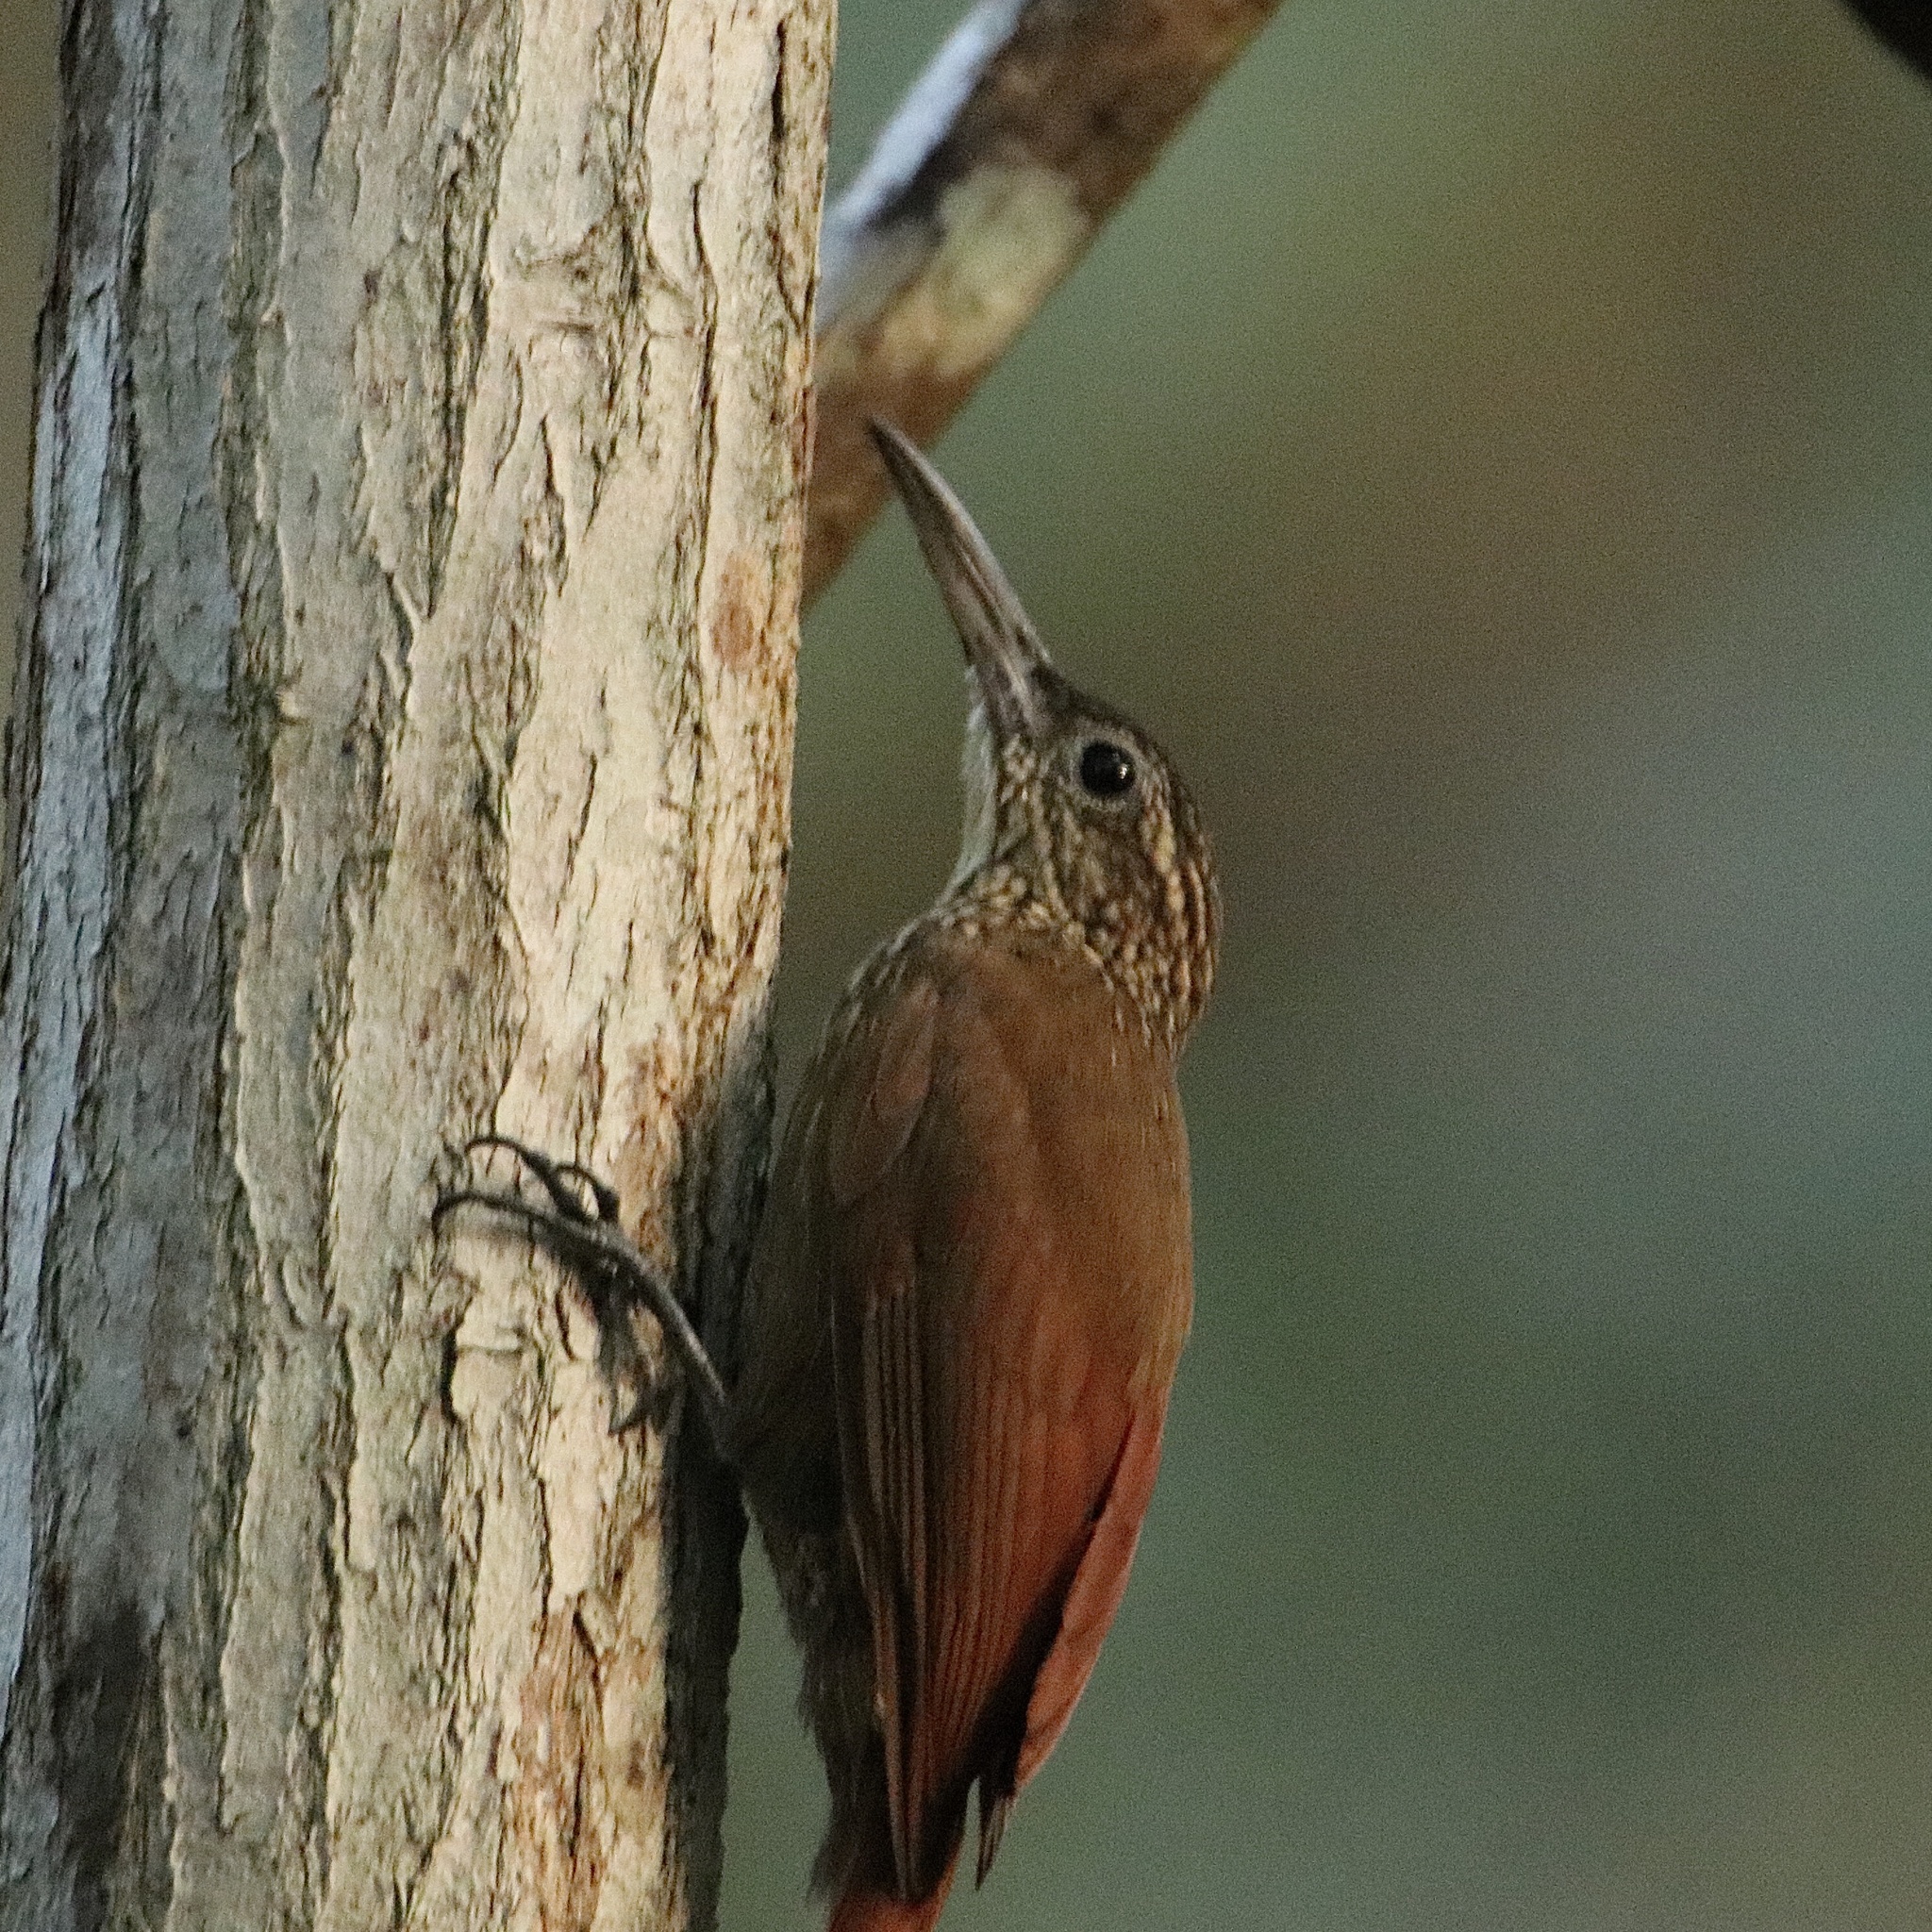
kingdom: Animalia
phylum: Chordata
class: Aves
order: Passeriformes
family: Furnariidae
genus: Xiphorhynchus
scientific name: Xiphorhynchus susurrans
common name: Cocoa woodcreeper
